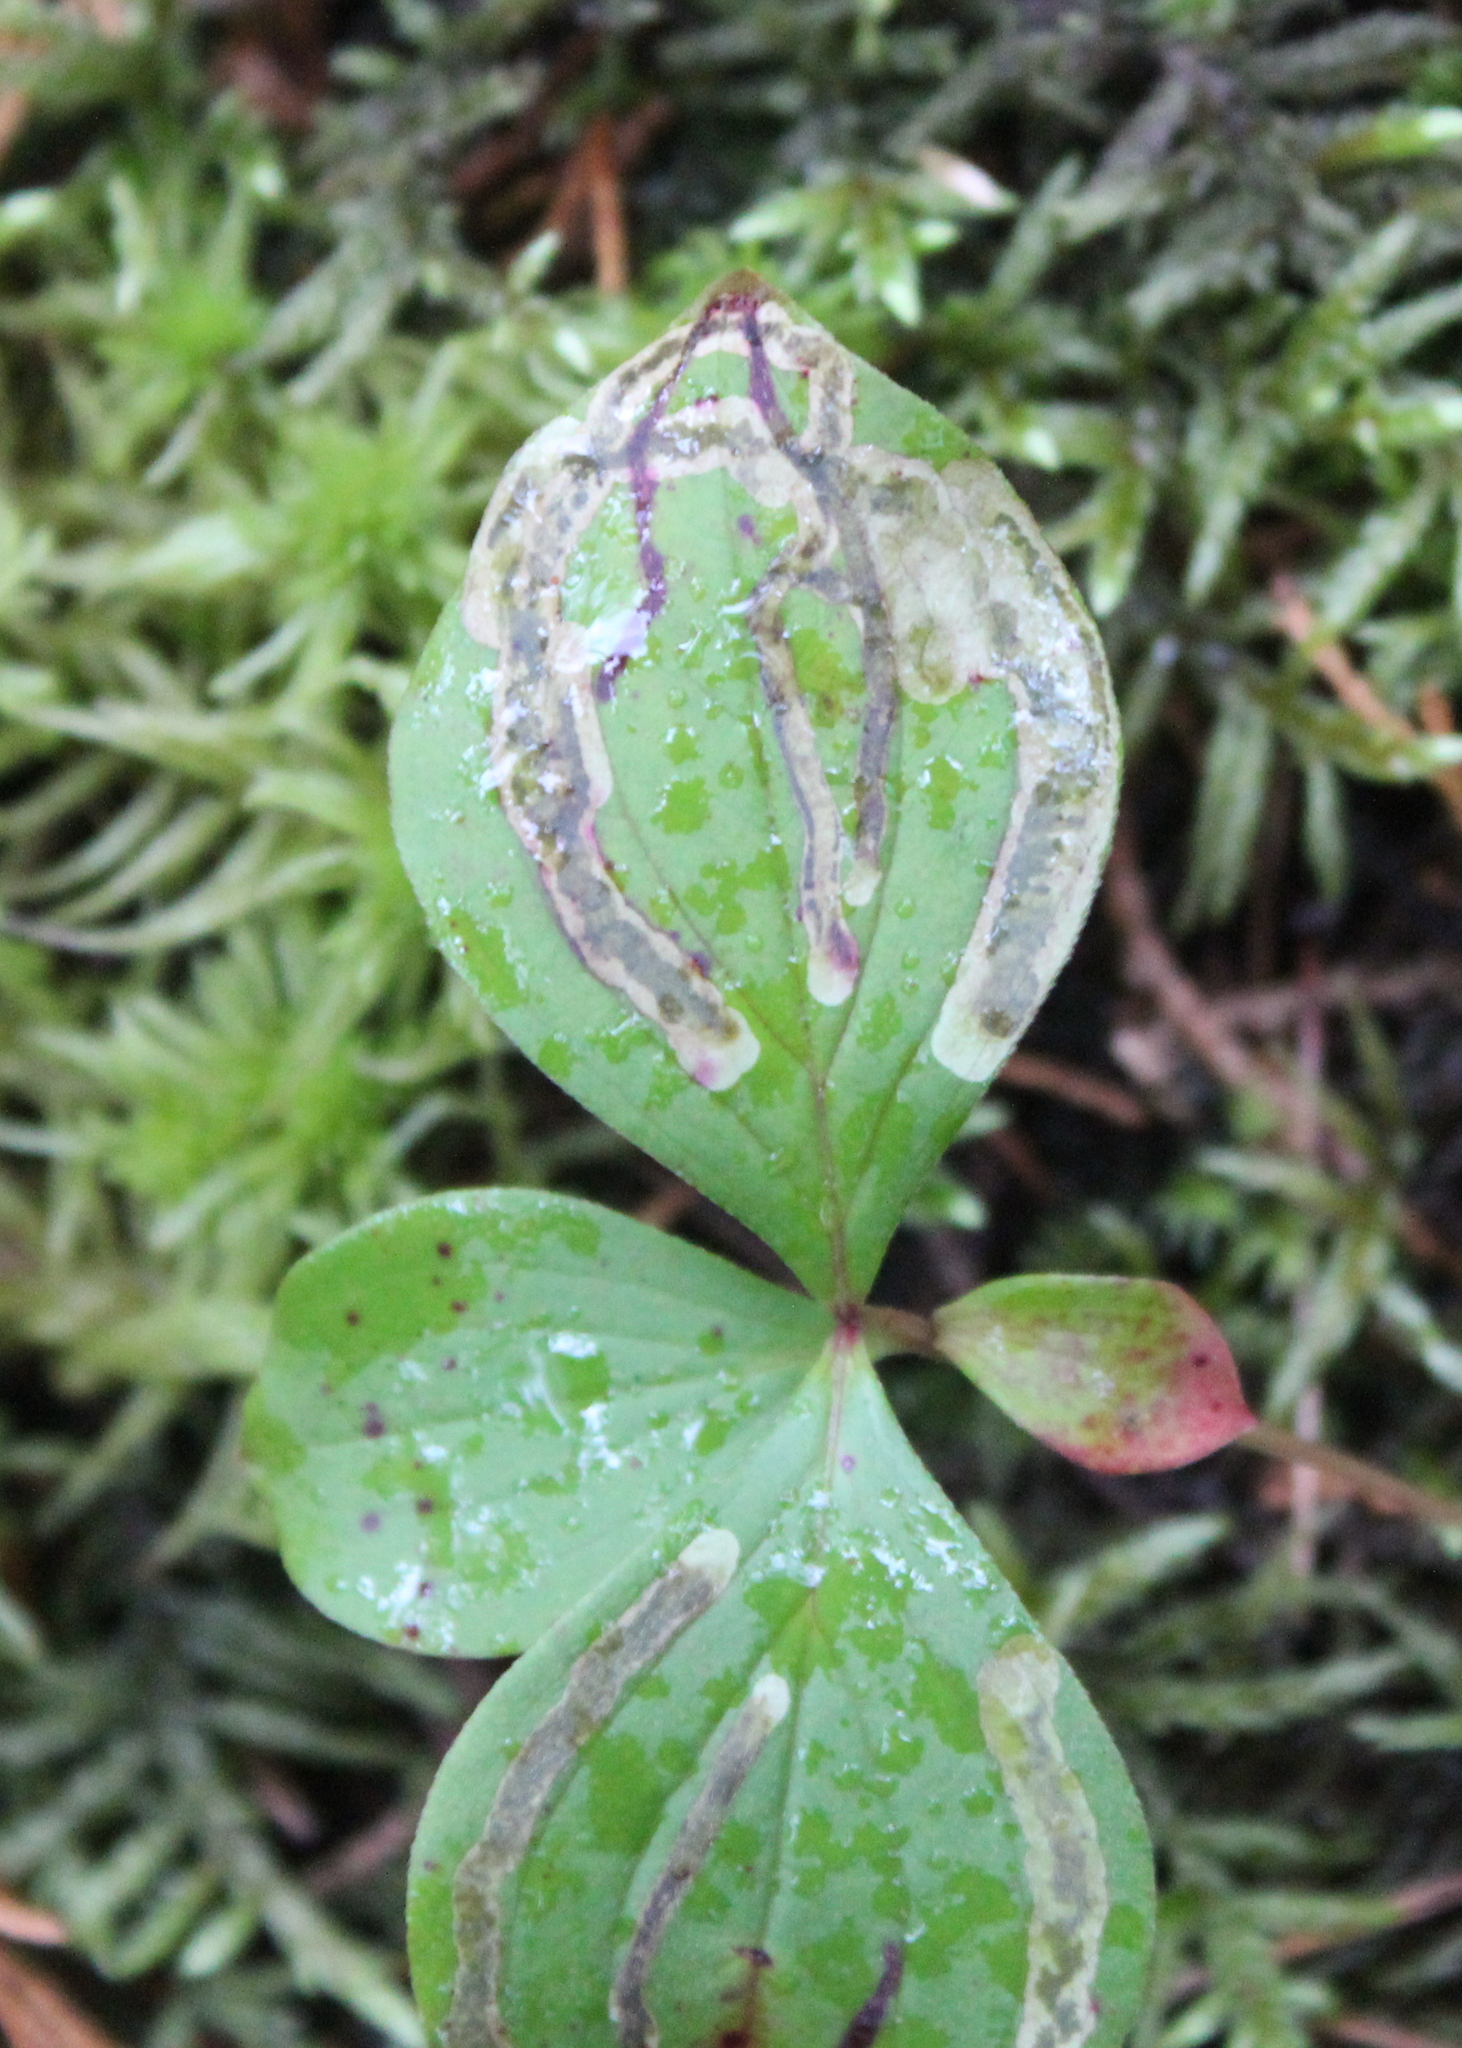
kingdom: Plantae
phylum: Tracheophyta
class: Magnoliopsida
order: Cornales
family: Cornaceae
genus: Cornus
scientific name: Cornus canadensis
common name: Creeping dogwood
